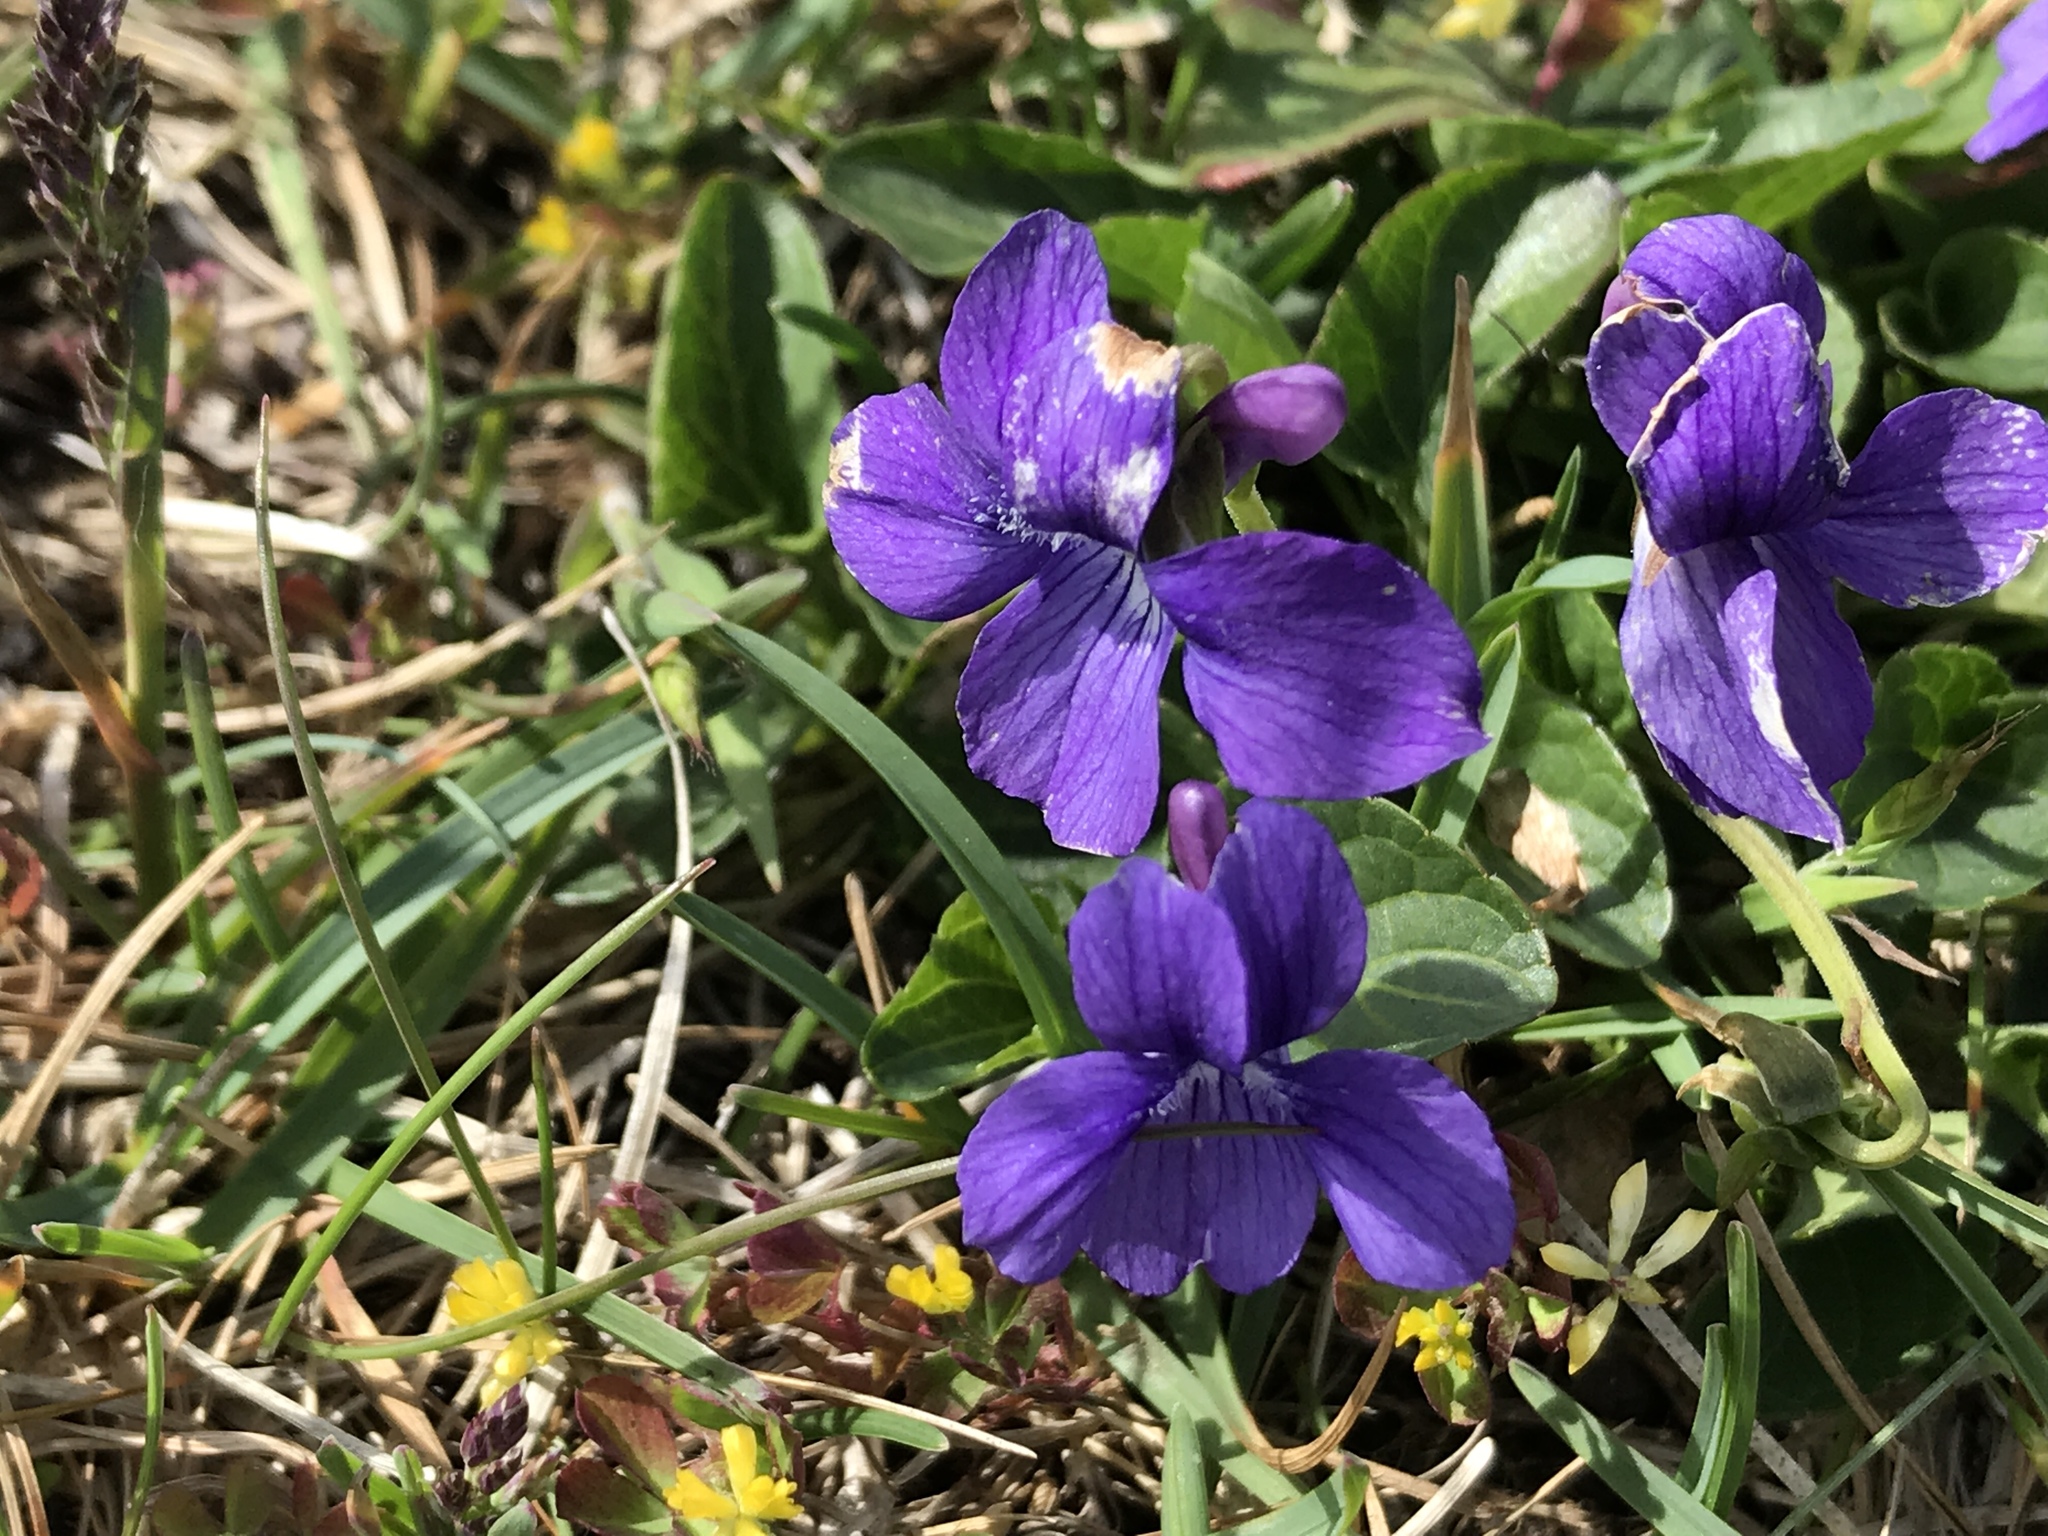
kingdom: Plantae
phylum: Tracheophyta
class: Magnoliopsida
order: Malpighiales
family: Violaceae
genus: Viola
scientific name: Viola adunca
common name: Sand violet
